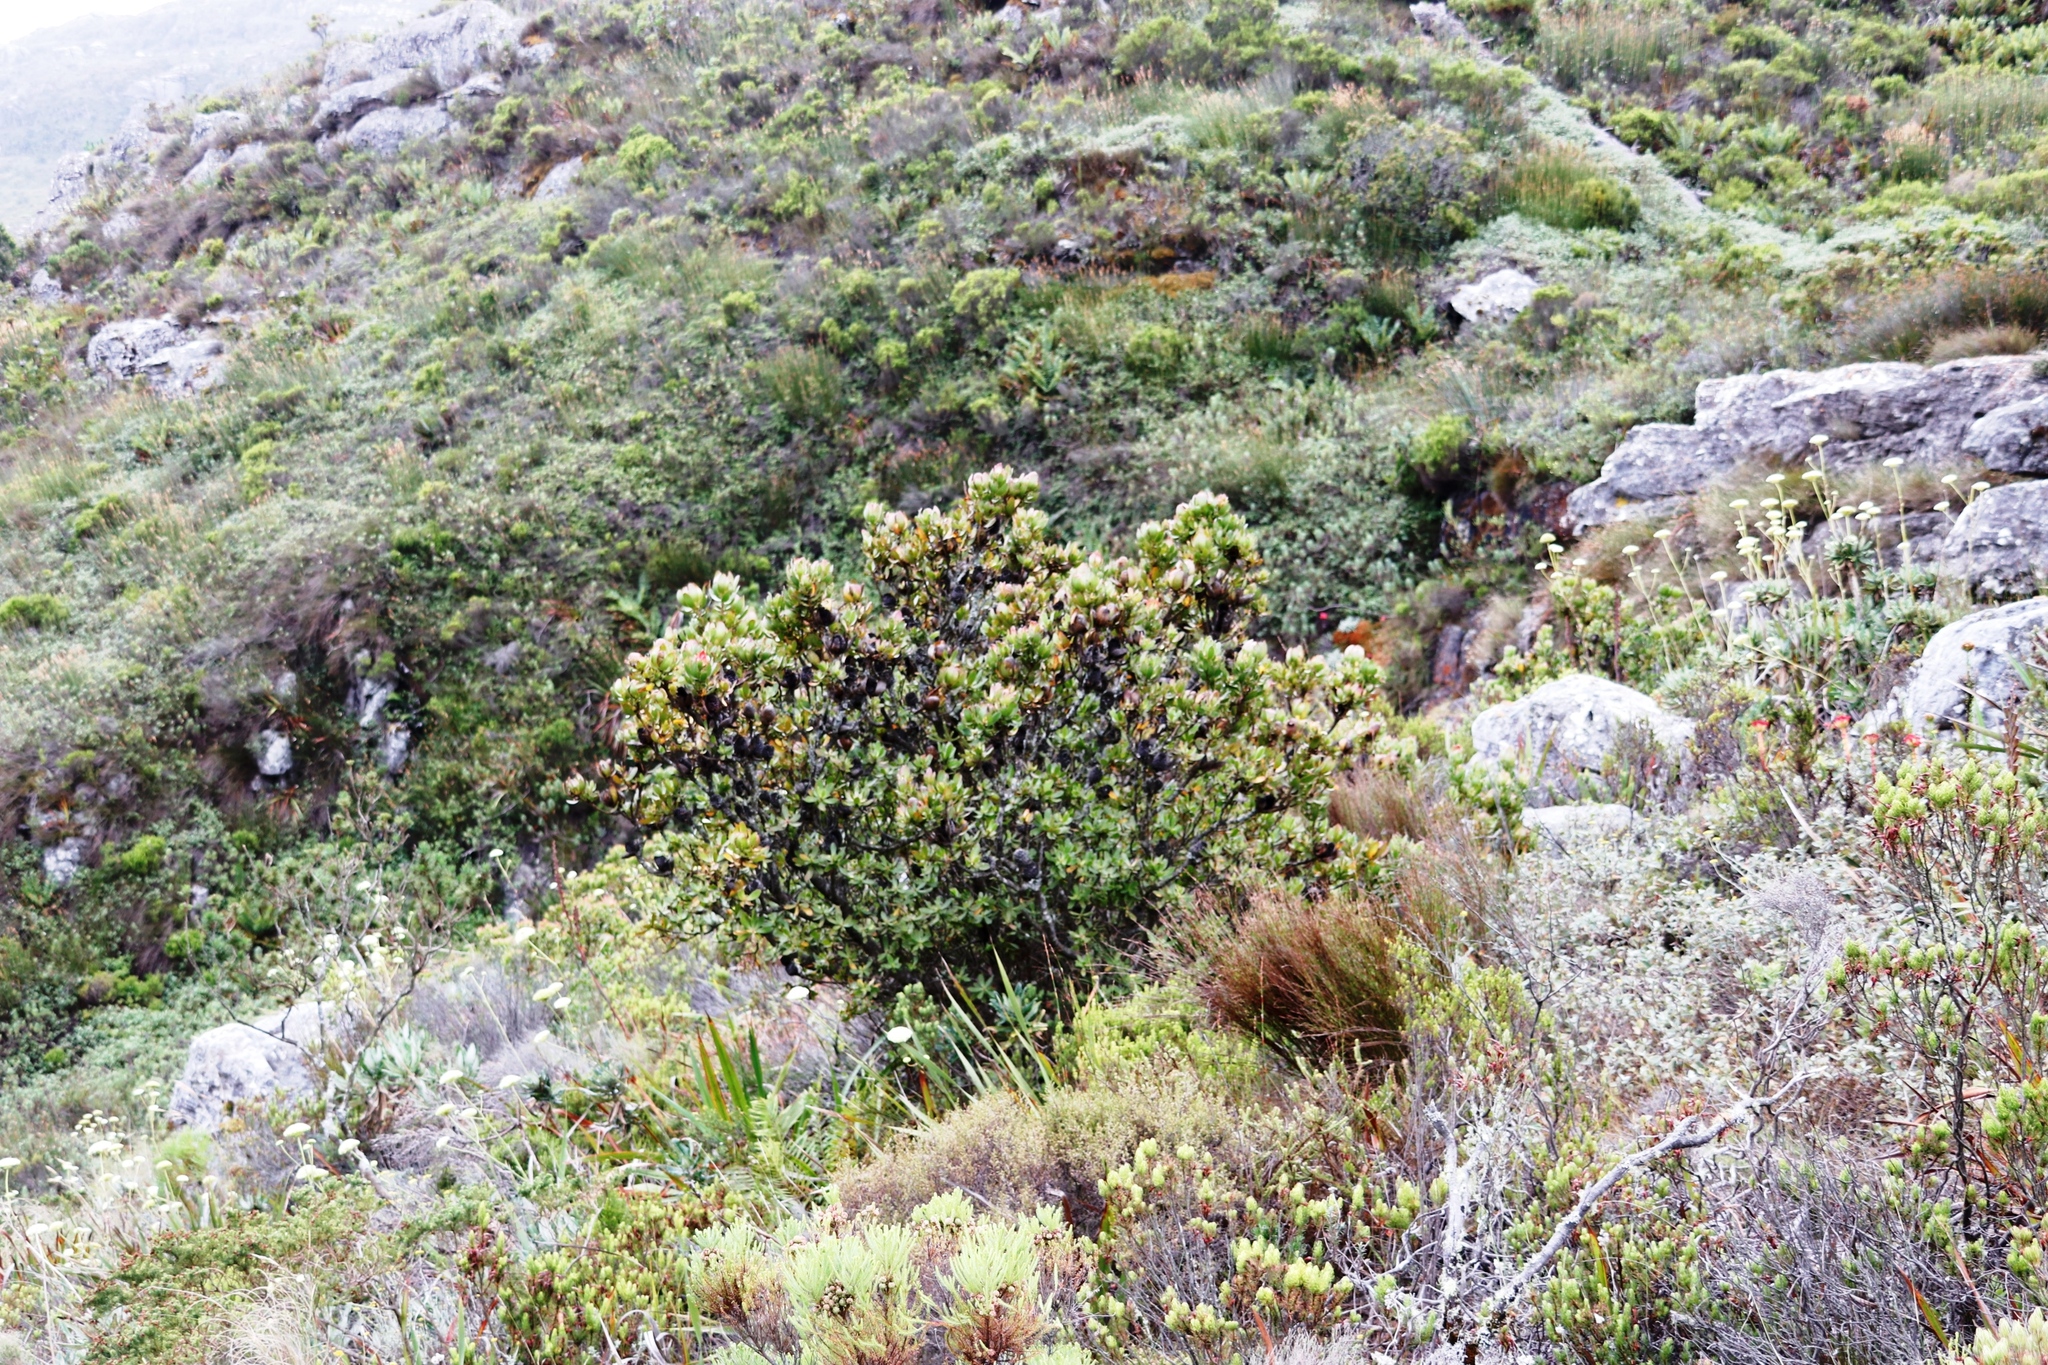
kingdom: Plantae
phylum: Tracheophyta
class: Magnoliopsida
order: Proteales
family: Proteaceae
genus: Leucadendron
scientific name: Leucadendron strobilinum
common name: Mountain rose
